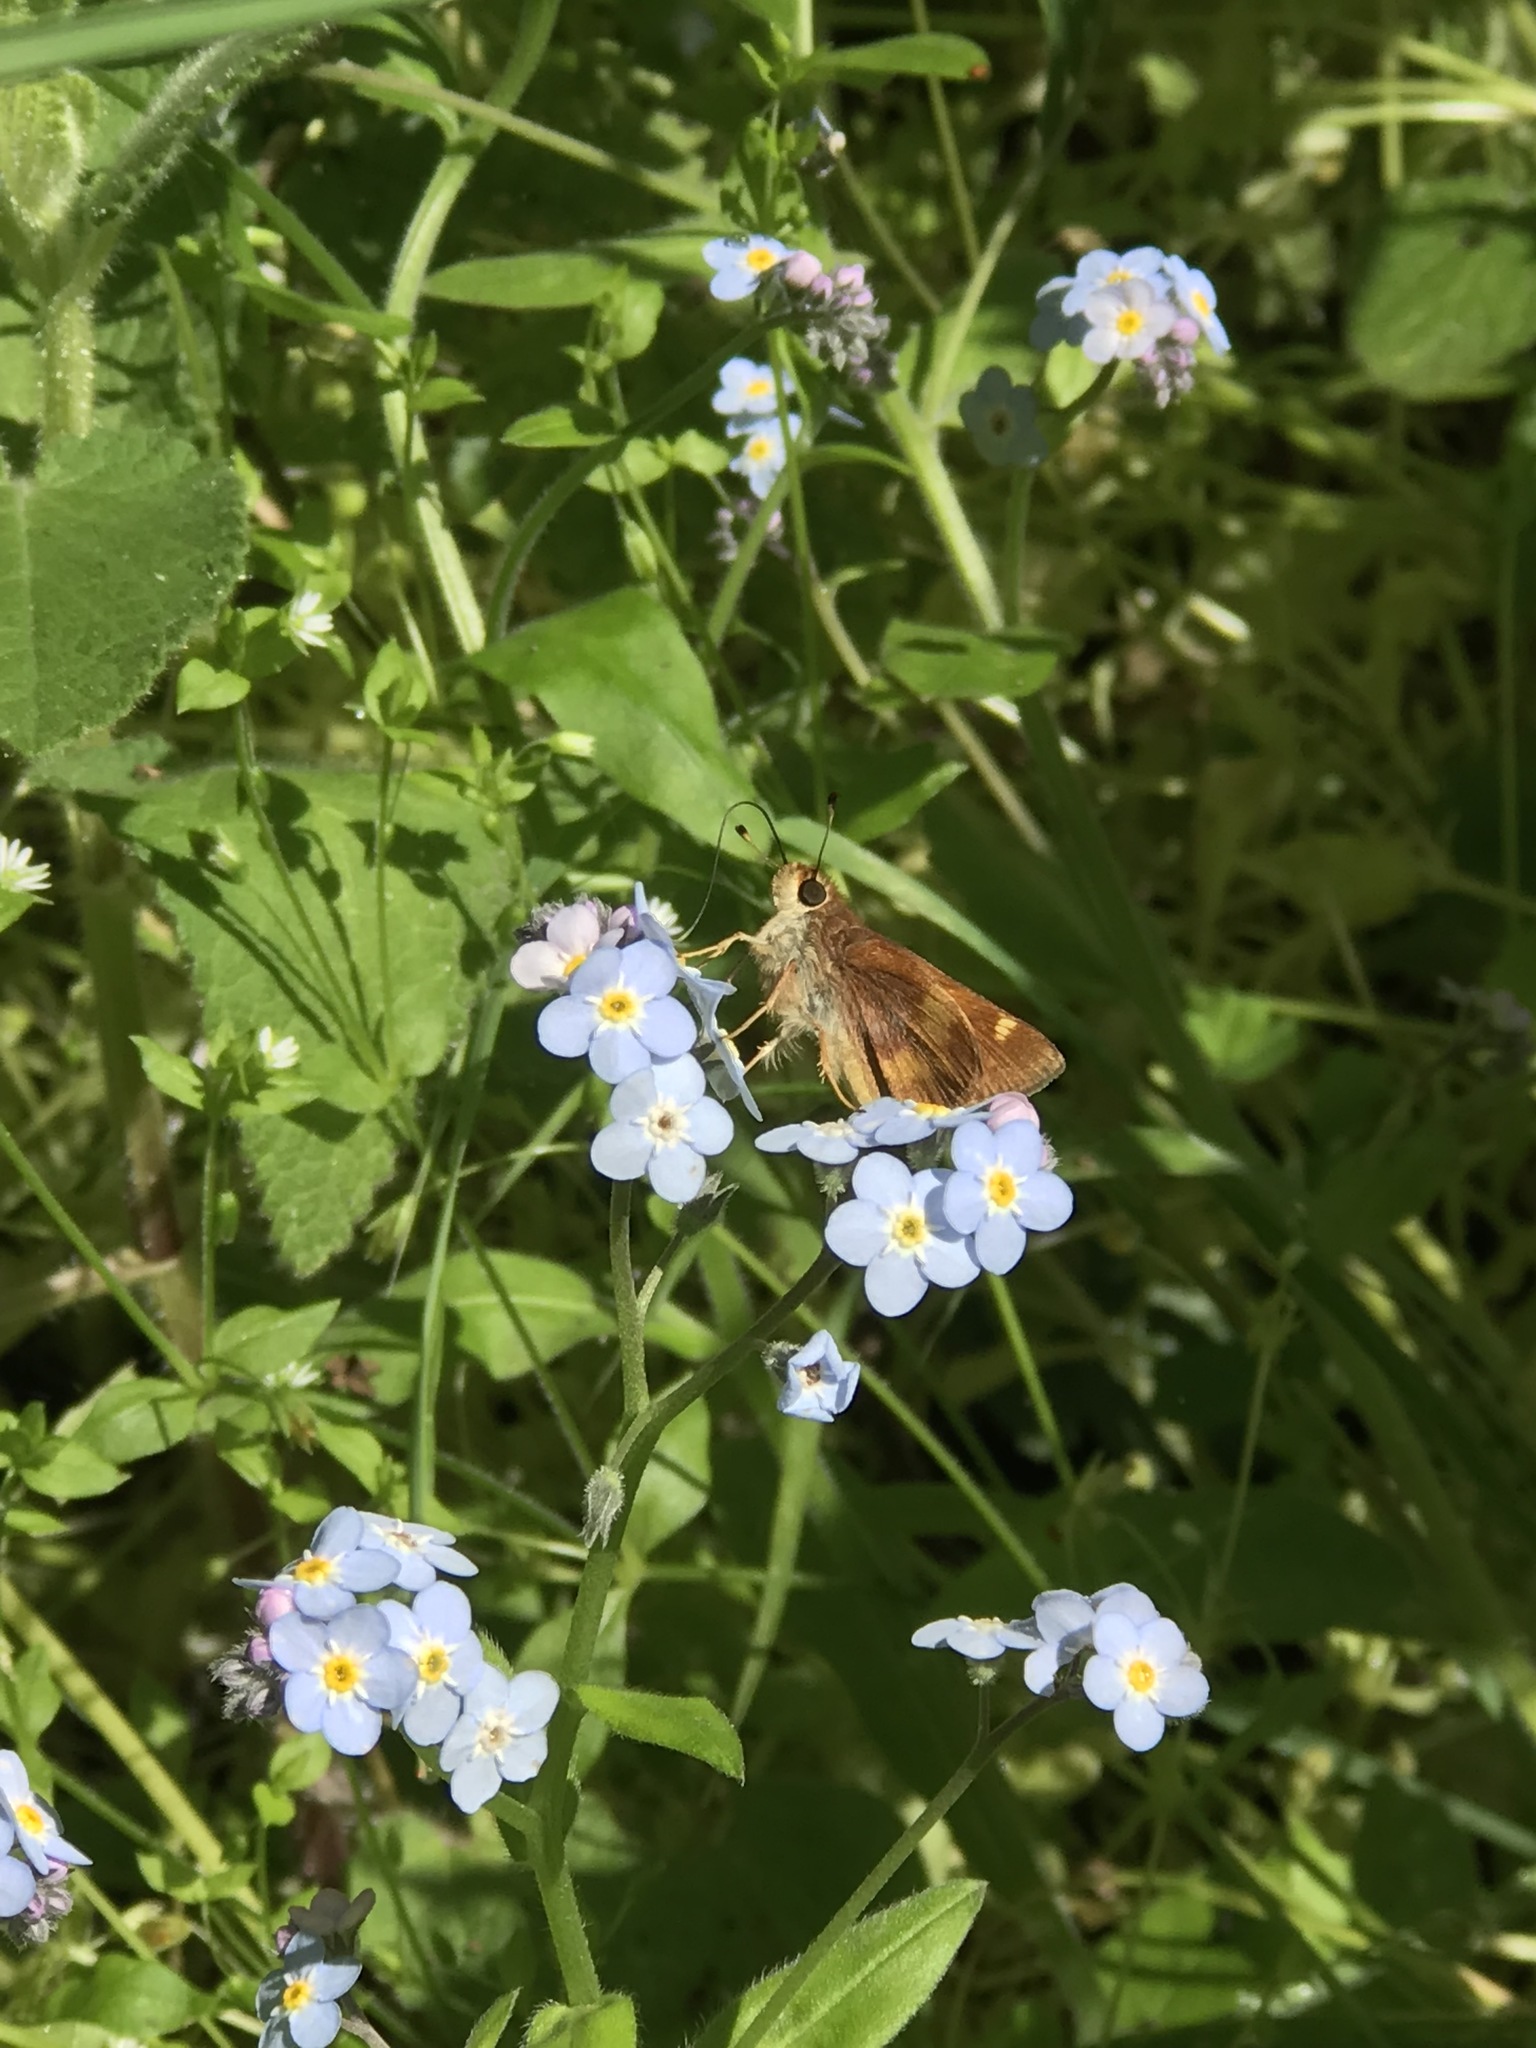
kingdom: Animalia
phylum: Arthropoda
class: Insecta
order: Lepidoptera
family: Hesperiidae
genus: Lon
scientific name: Lon melane
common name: Umber skipper
